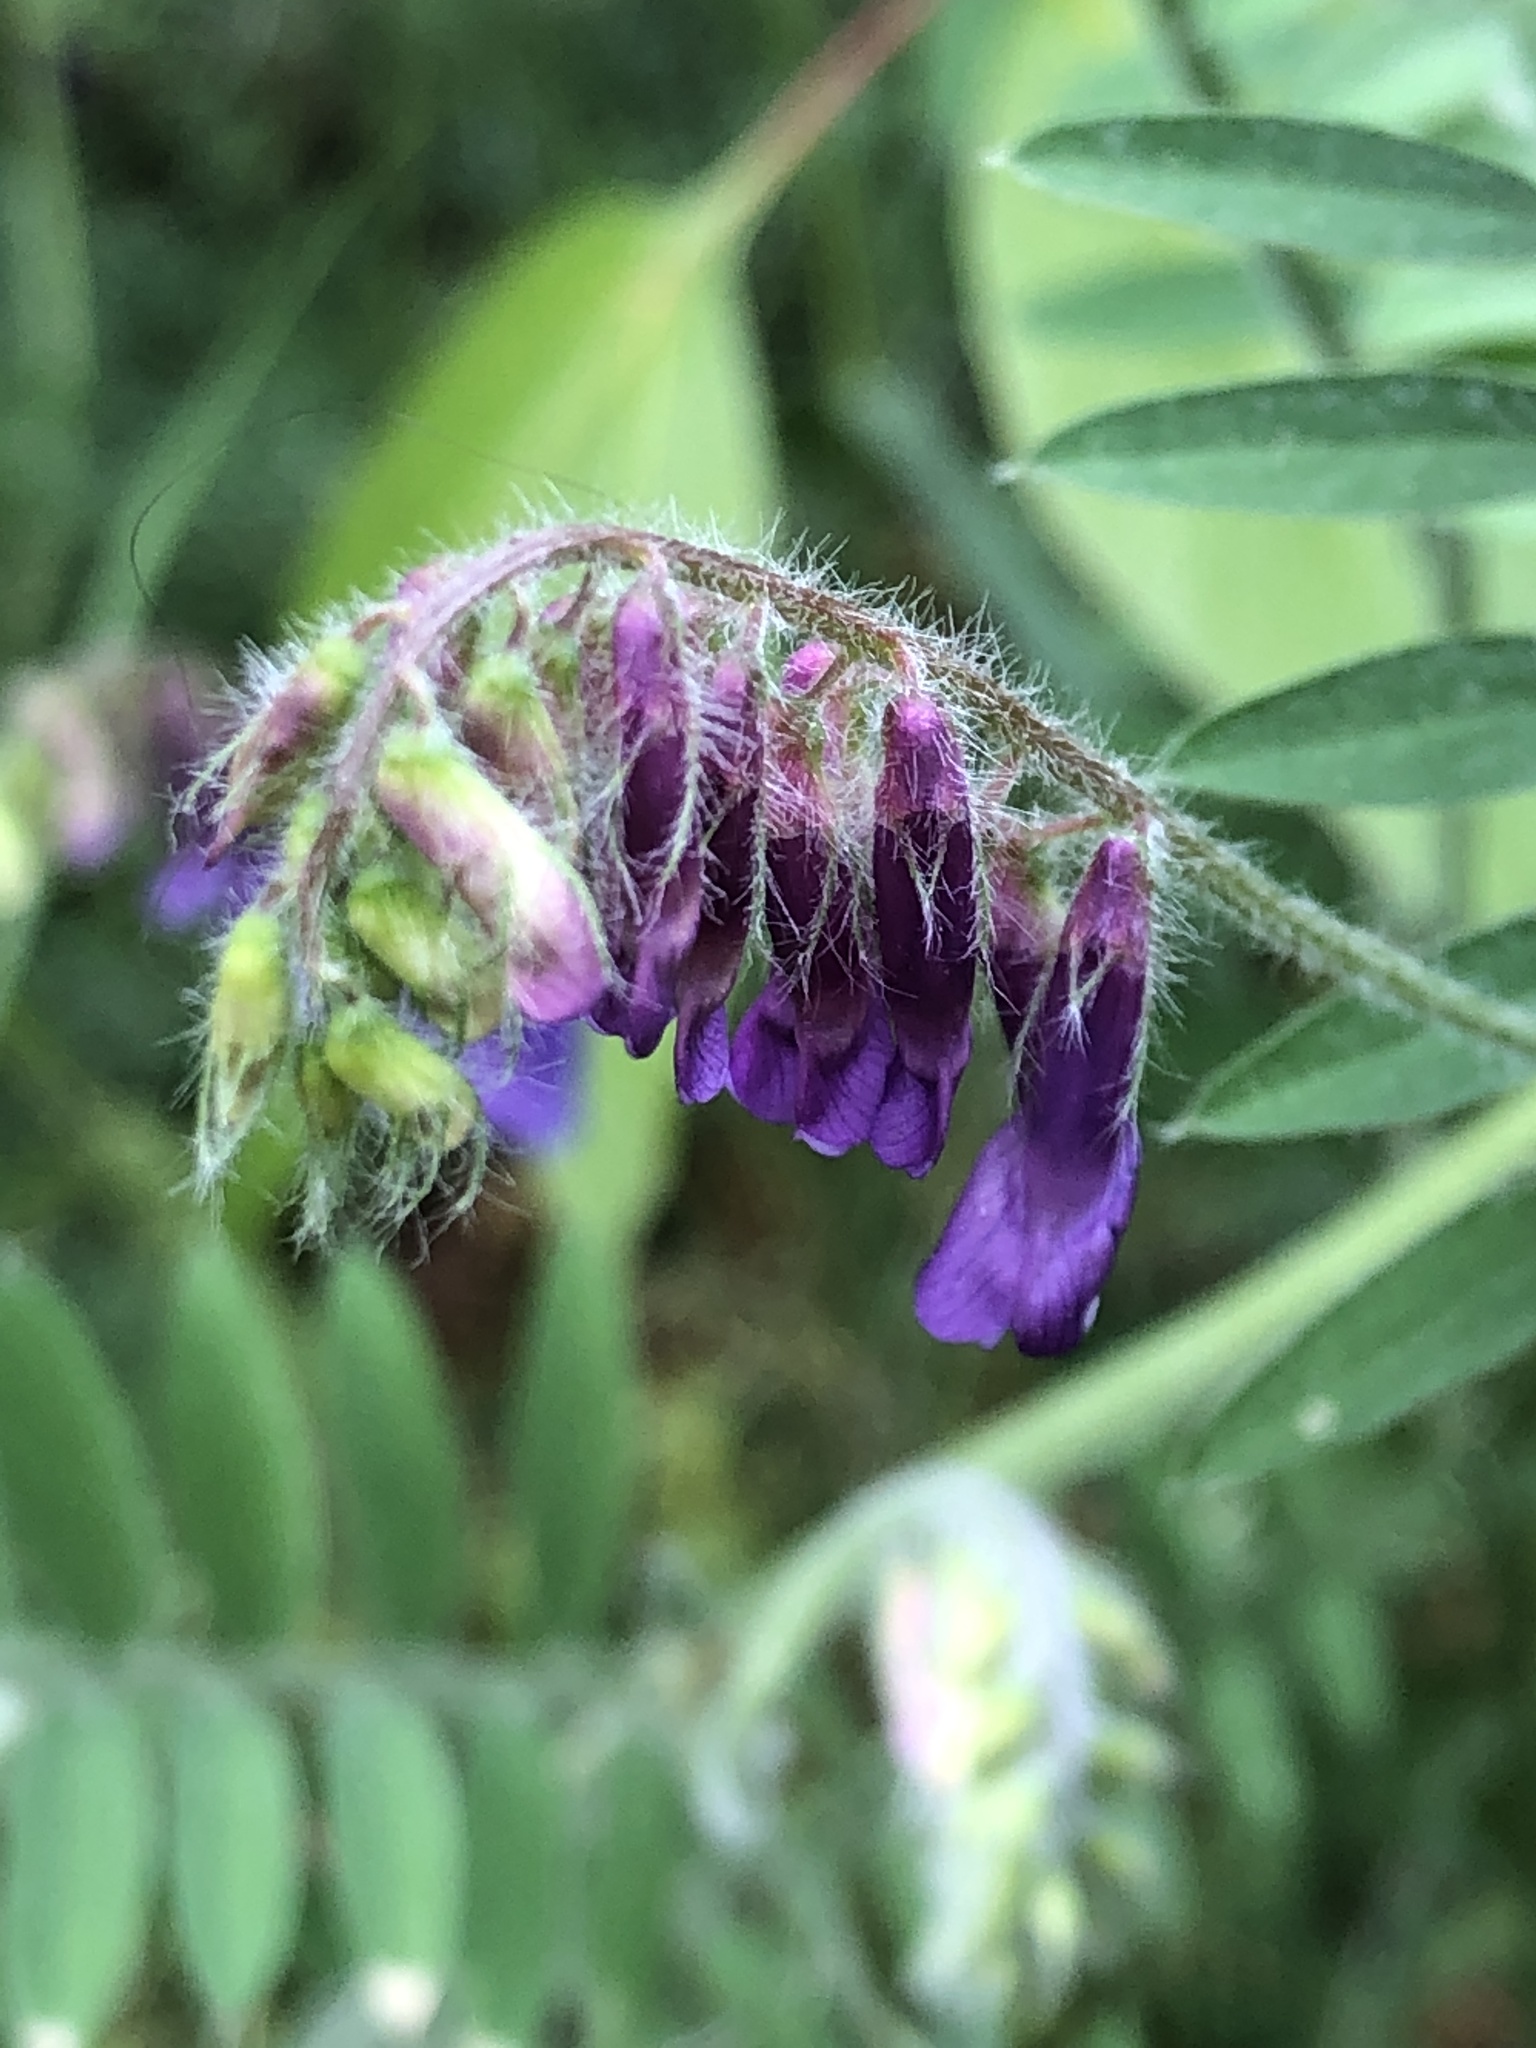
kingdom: Plantae
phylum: Tracheophyta
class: Magnoliopsida
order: Fabales
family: Fabaceae
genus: Vicia
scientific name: Vicia villosa
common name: Fodder vetch
